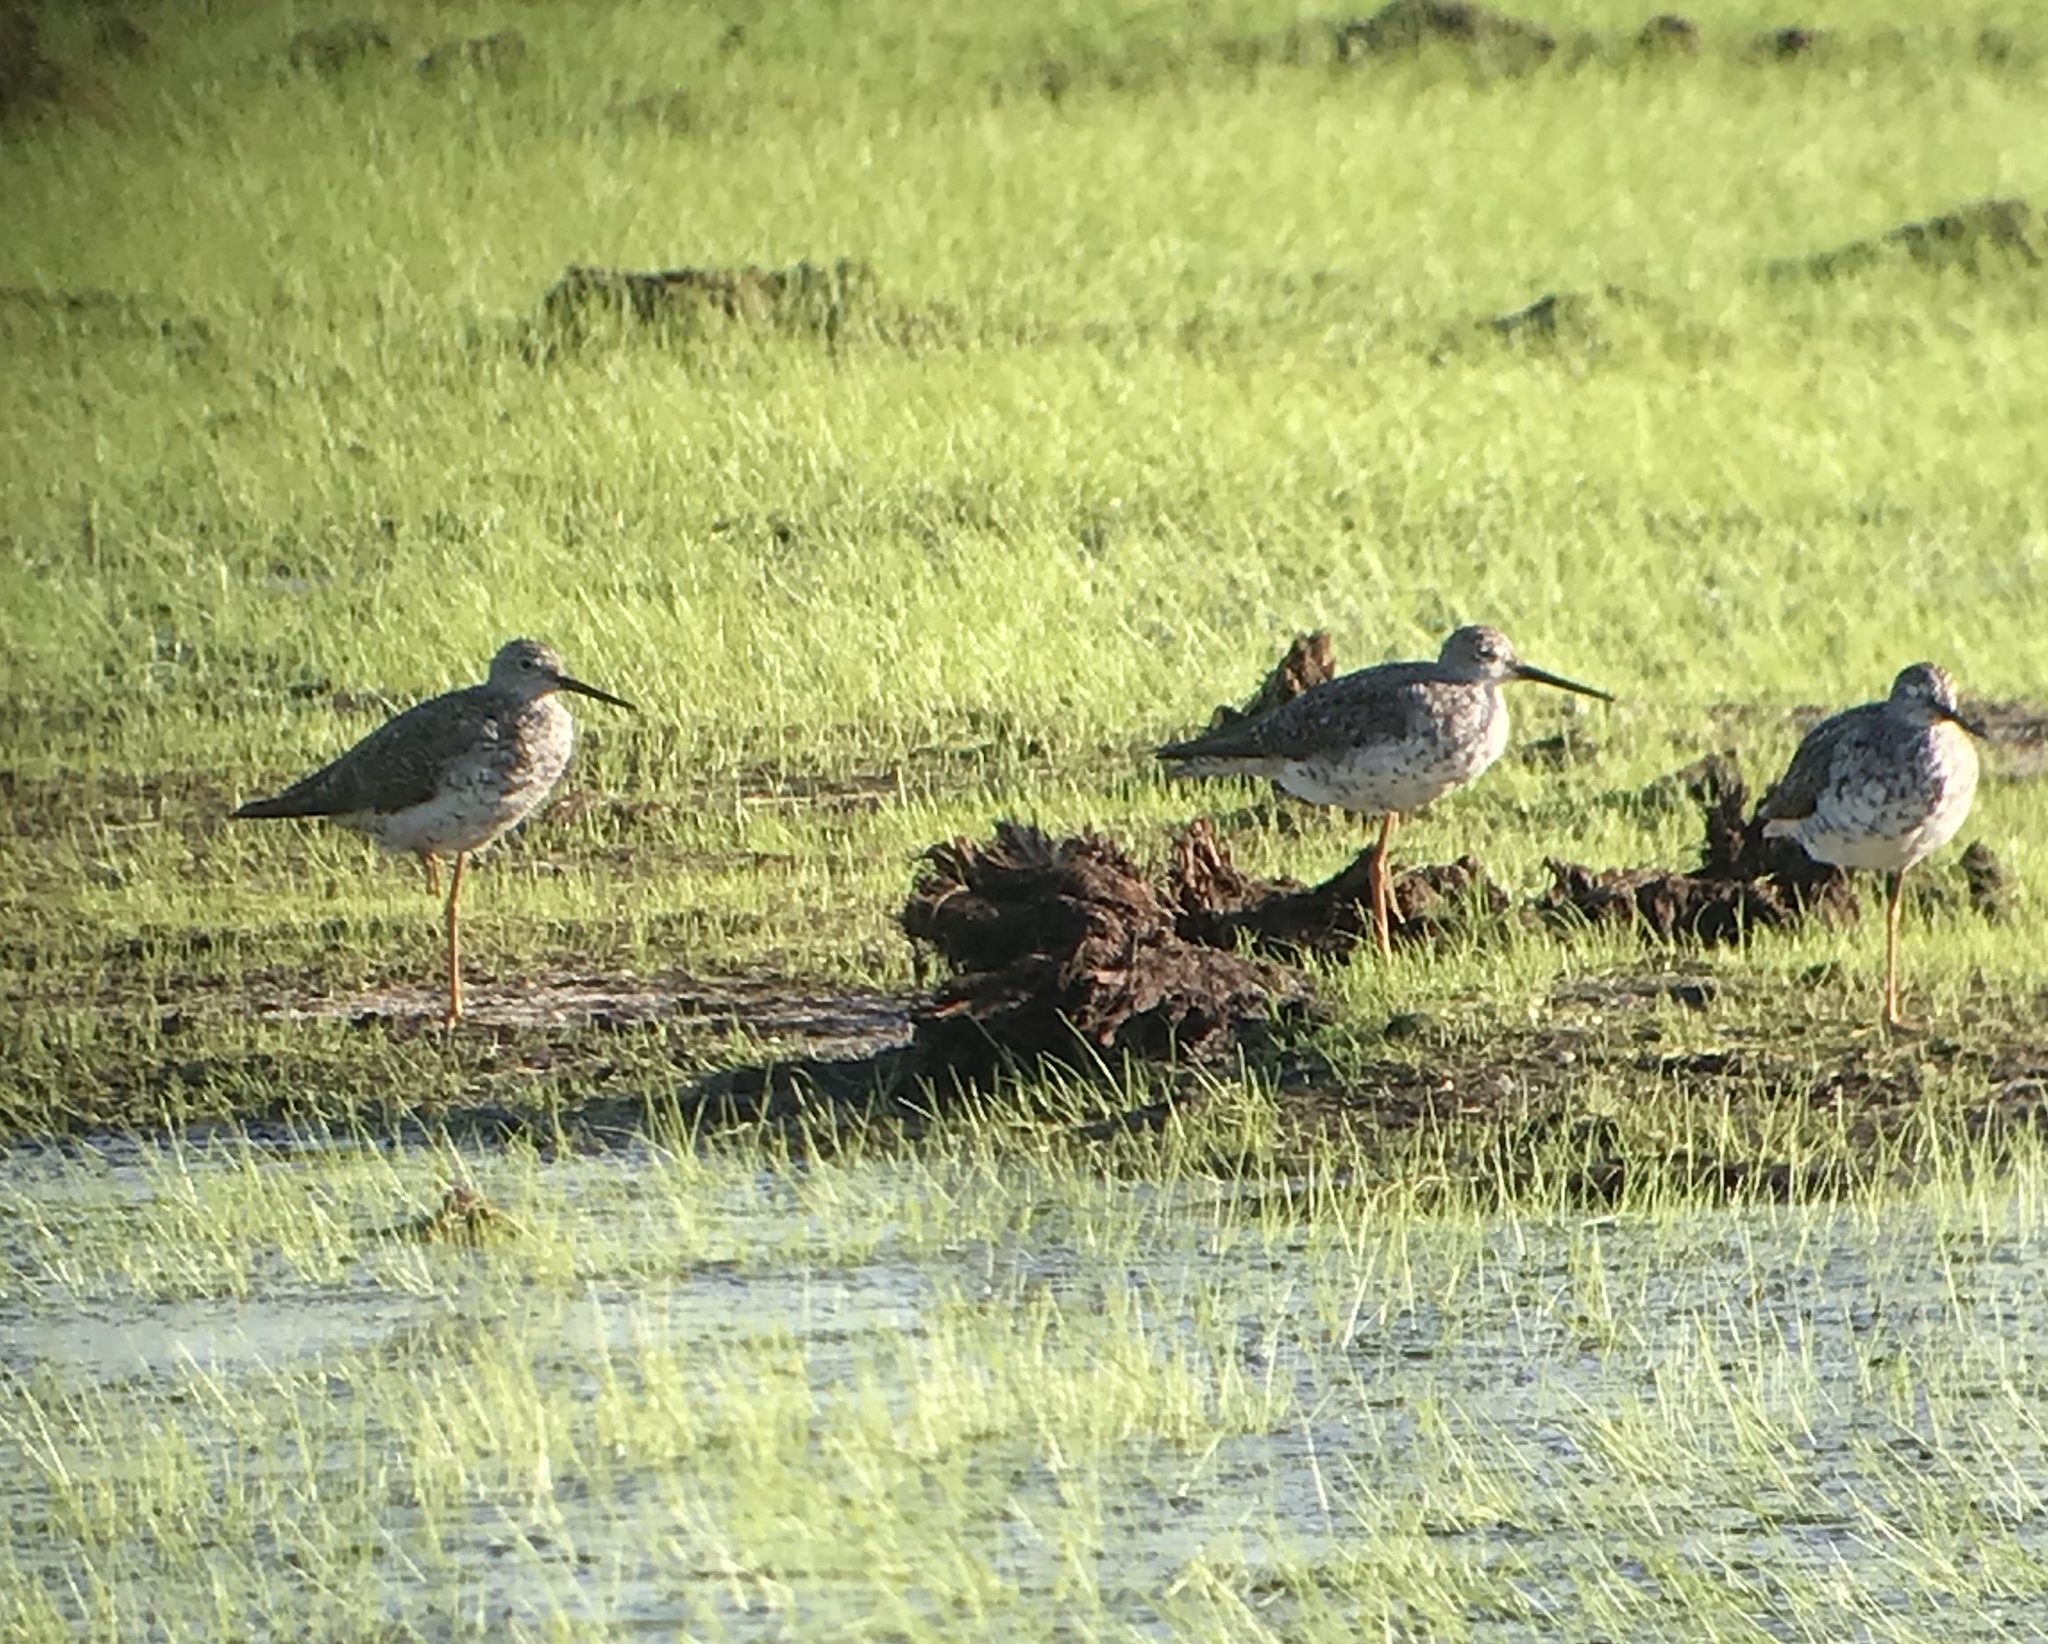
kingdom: Animalia
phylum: Chordata
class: Aves
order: Charadriiformes
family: Scolopacidae
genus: Tringa
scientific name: Tringa melanoleuca
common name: Greater yellowlegs
